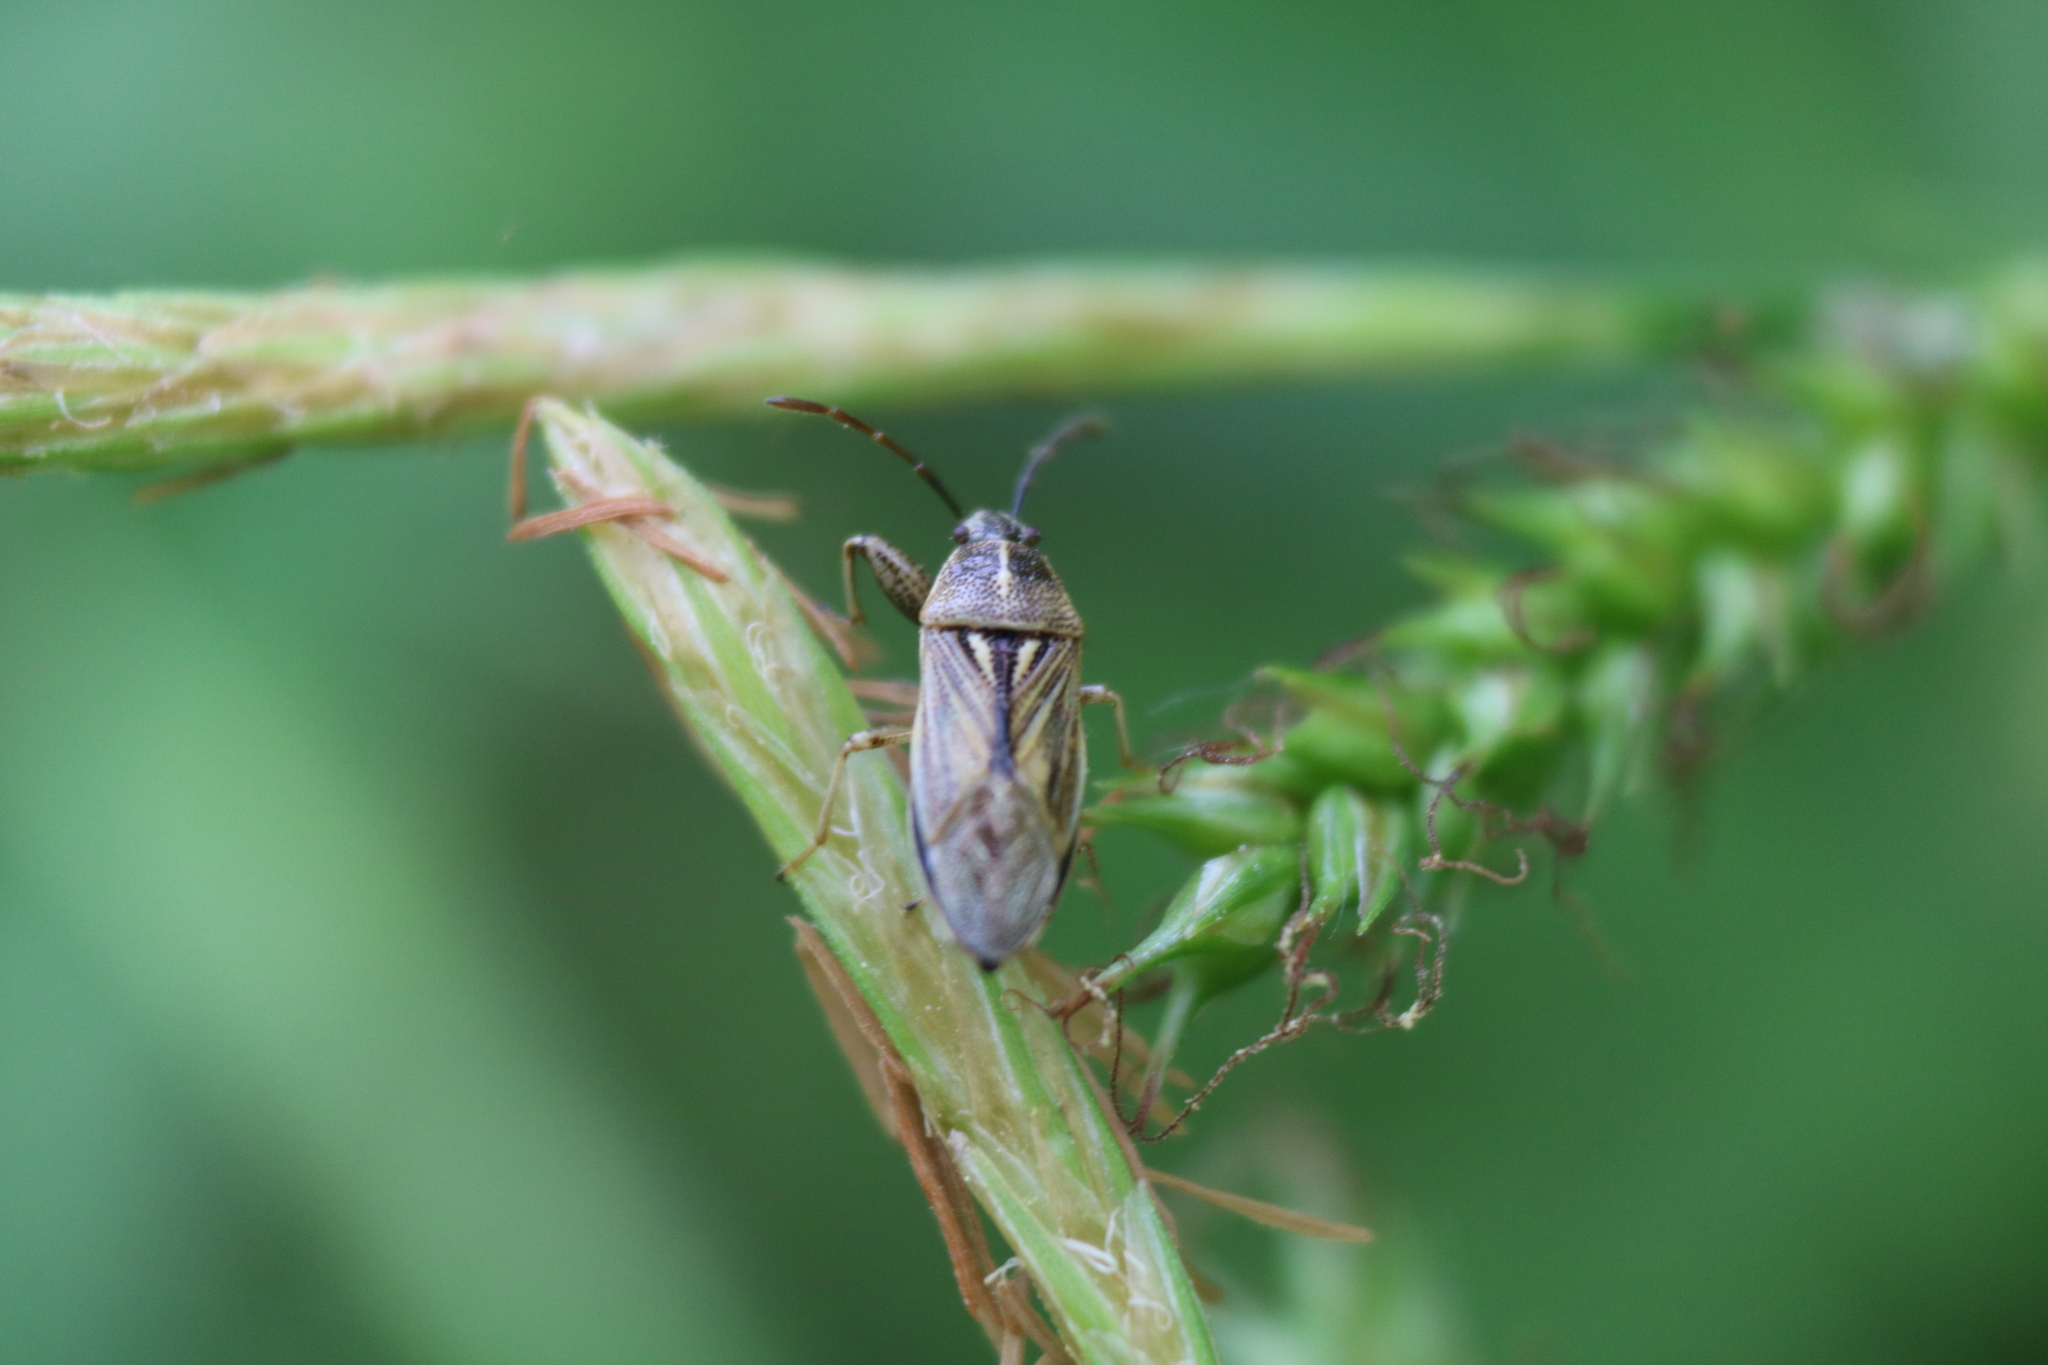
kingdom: Animalia
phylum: Arthropoda
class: Insecta
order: Hemiptera
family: Pachygronthidae
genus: Oedancala
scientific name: Oedancala dorsalis
